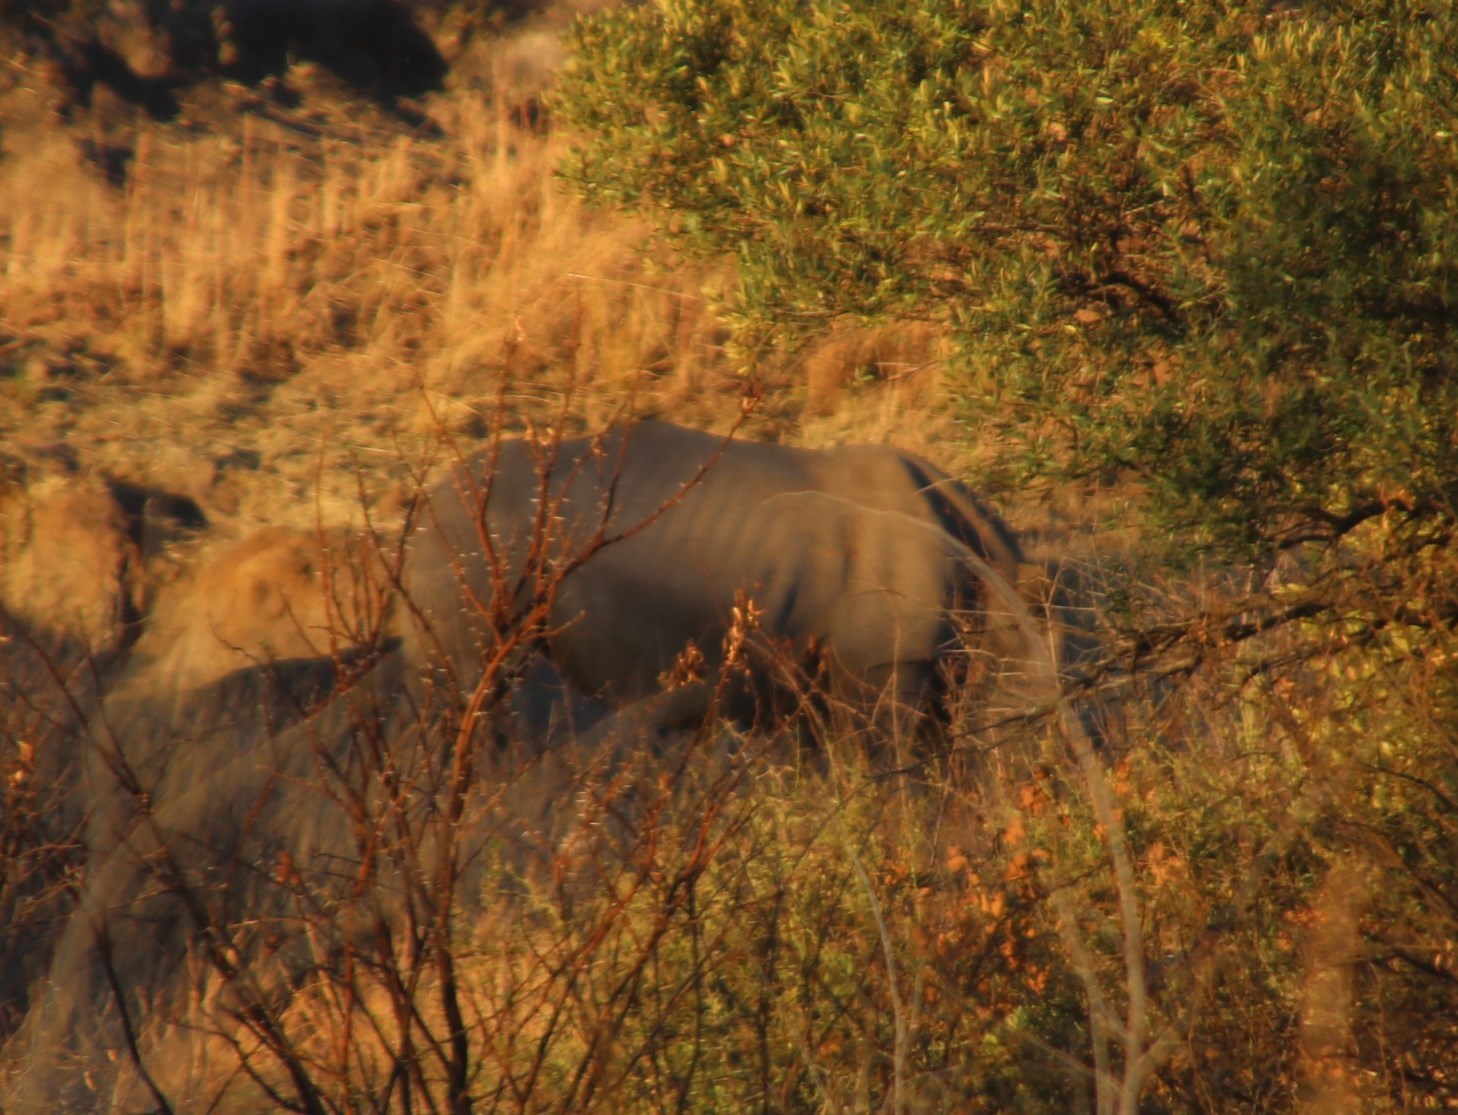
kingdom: Animalia
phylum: Chordata
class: Mammalia
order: Perissodactyla
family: Rhinocerotidae
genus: Ceratotherium
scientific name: Ceratotherium simum
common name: White rhinoceros
